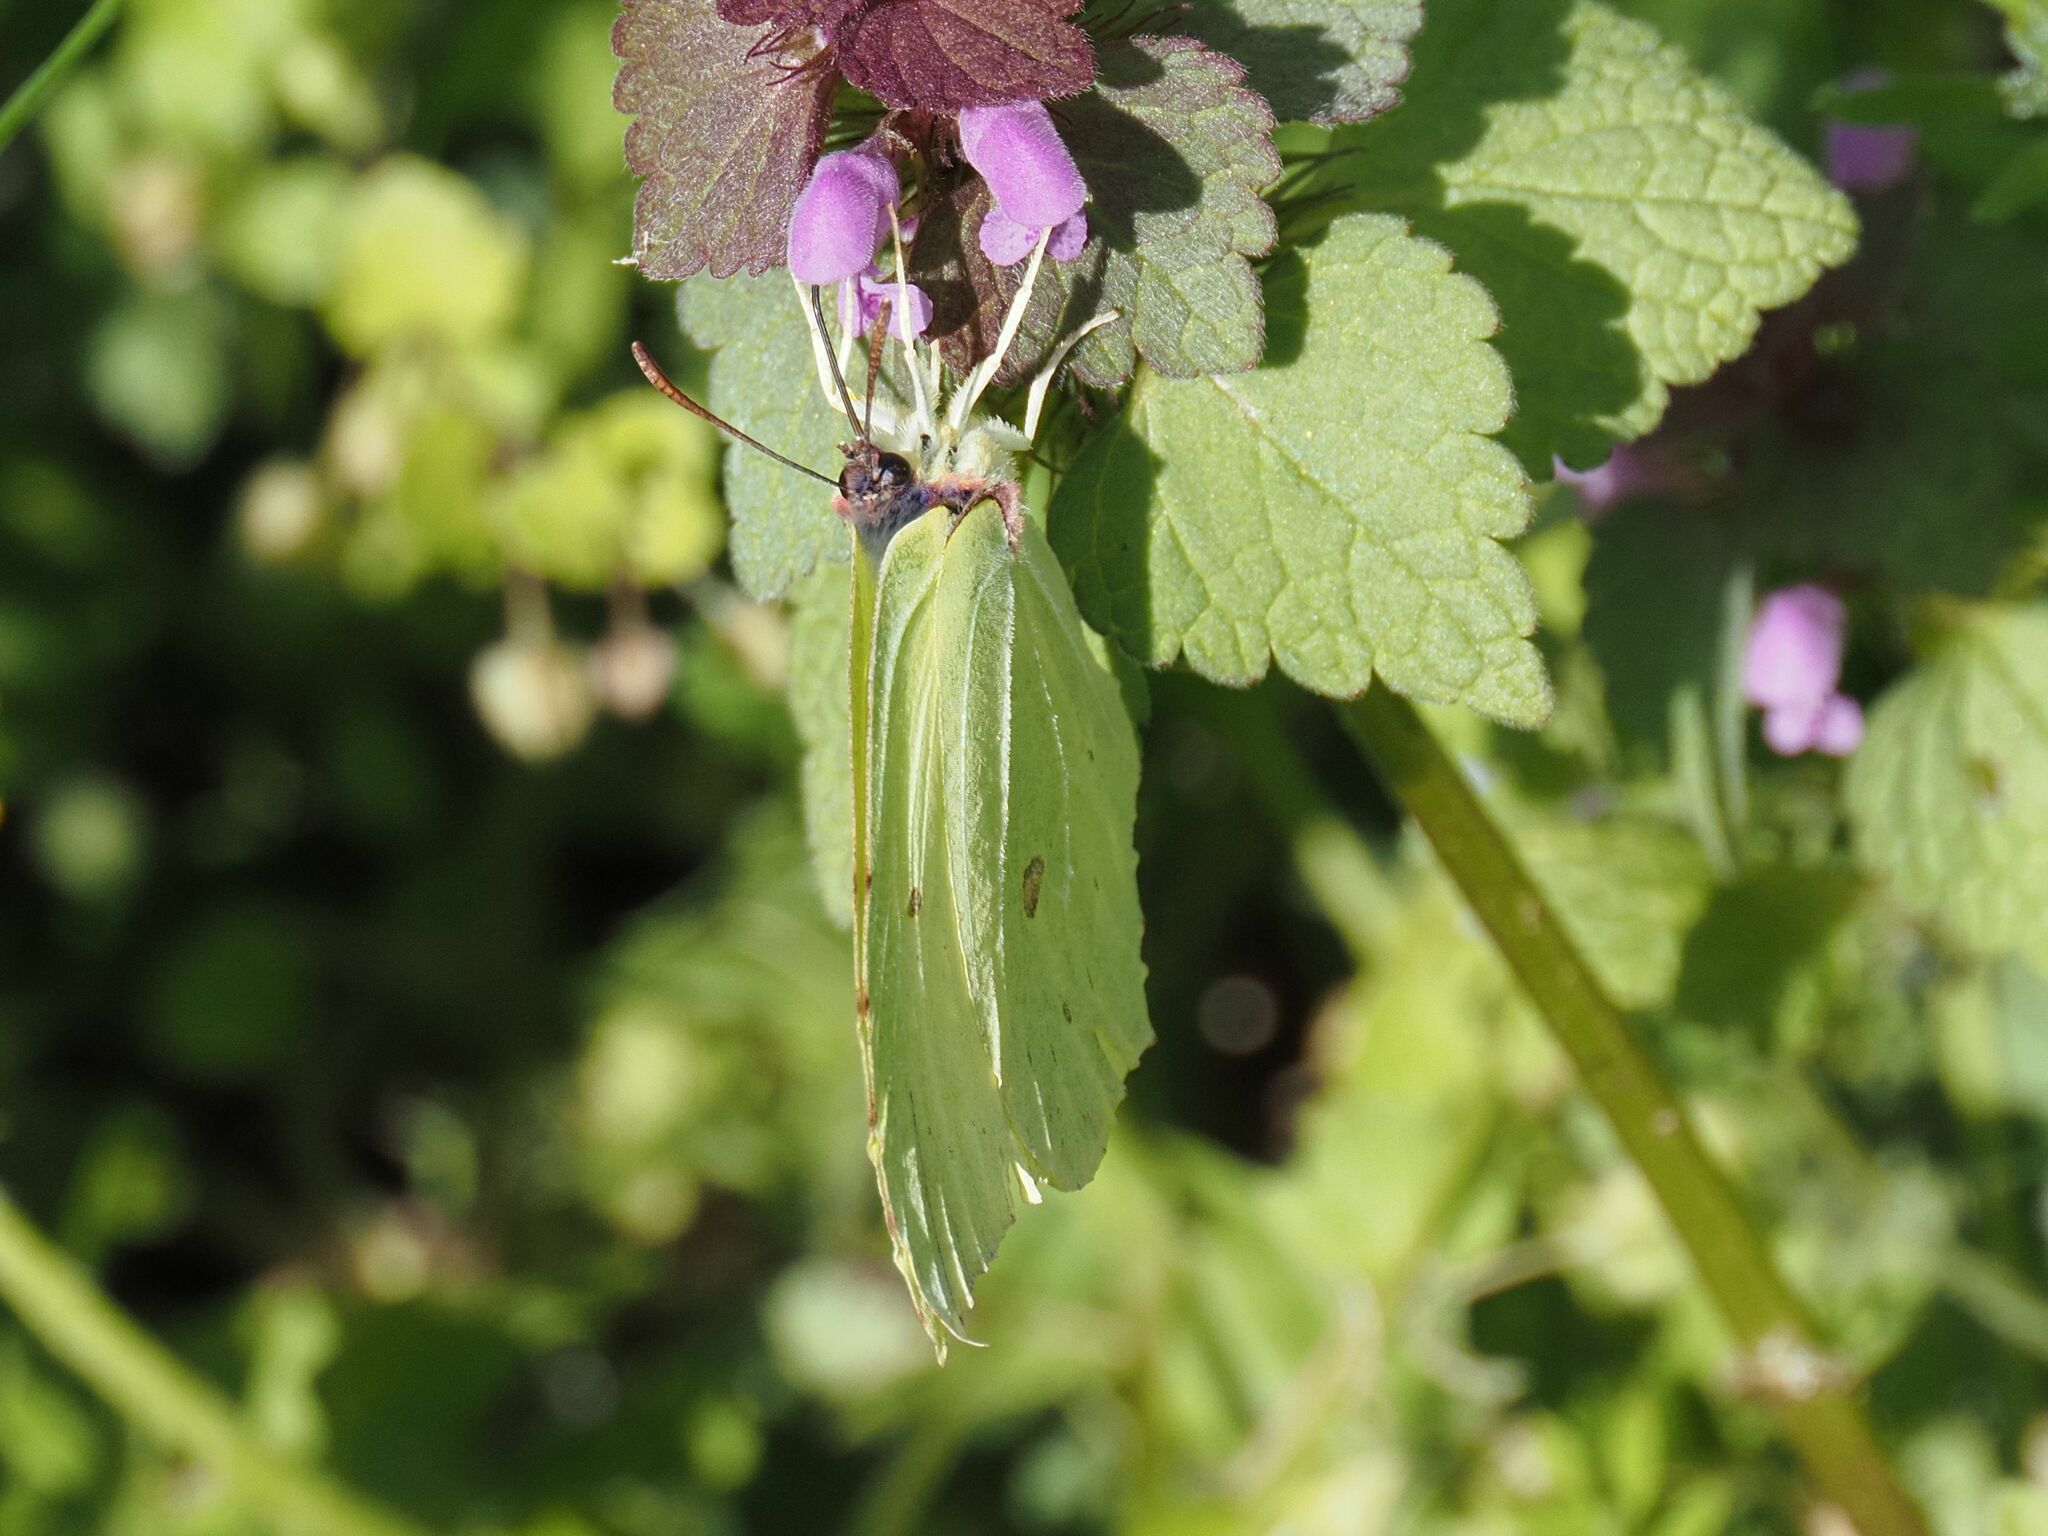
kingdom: Animalia
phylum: Arthropoda
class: Insecta
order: Lepidoptera
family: Pieridae
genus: Gonepteryx
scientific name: Gonepteryx rhamni
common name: Brimstone
